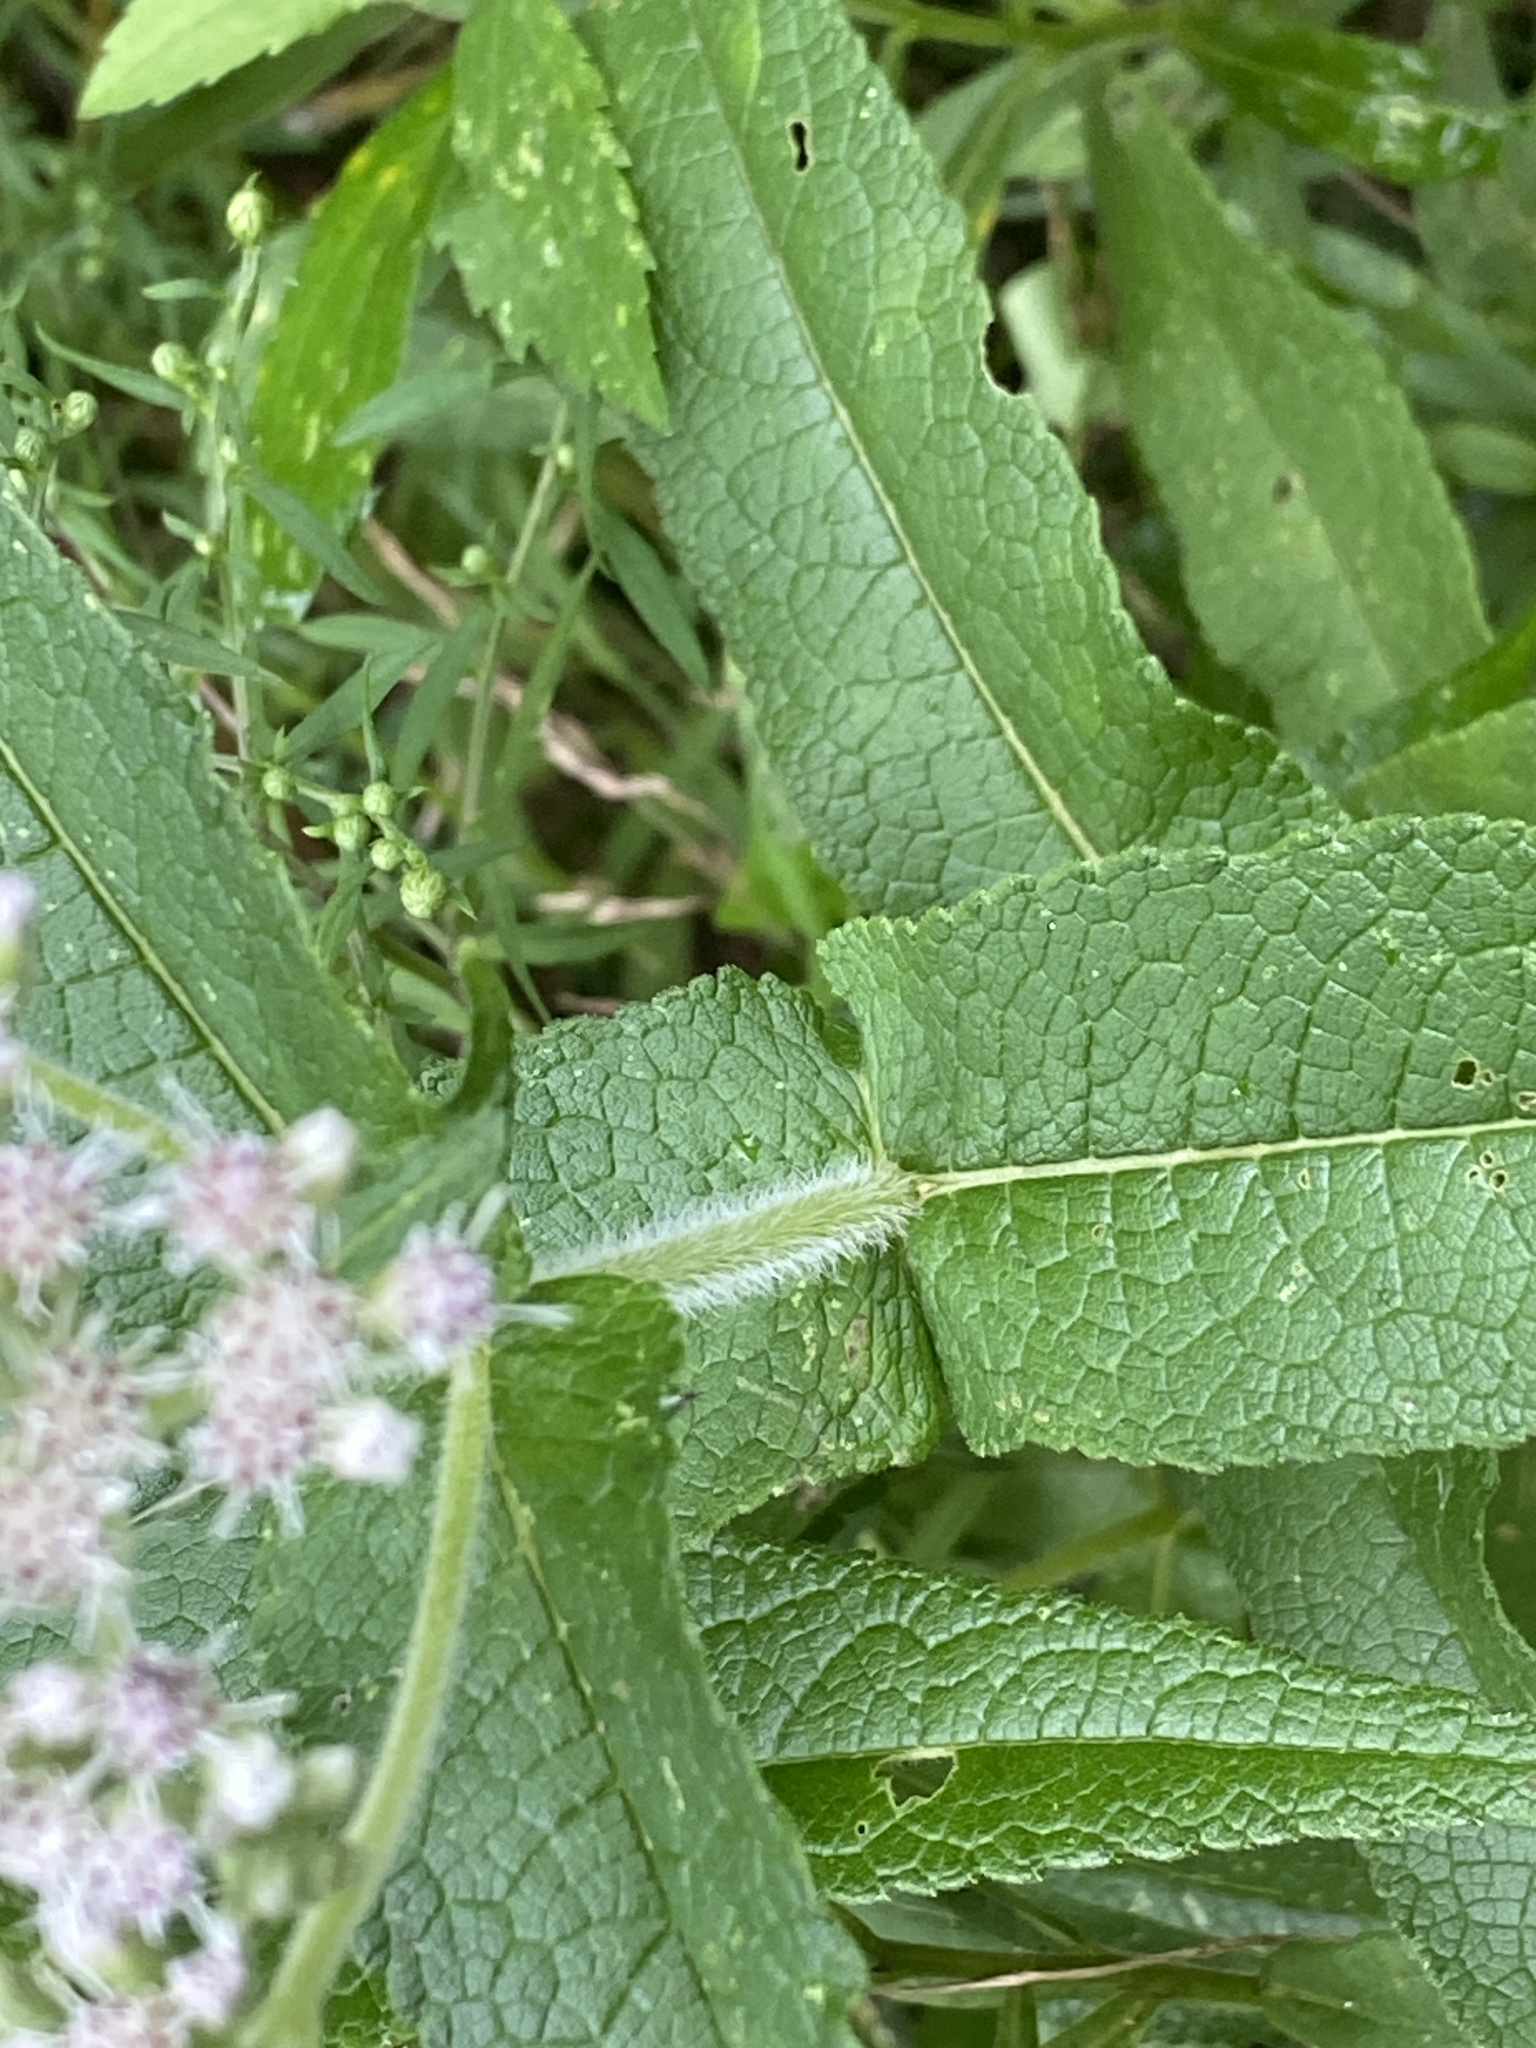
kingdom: Plantae
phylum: Tracheophyta
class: Magnoliopsida
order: Asterales
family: Asteraceae
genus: Eupatorium
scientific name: Eupatorium perfoliatum
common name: Boneset
